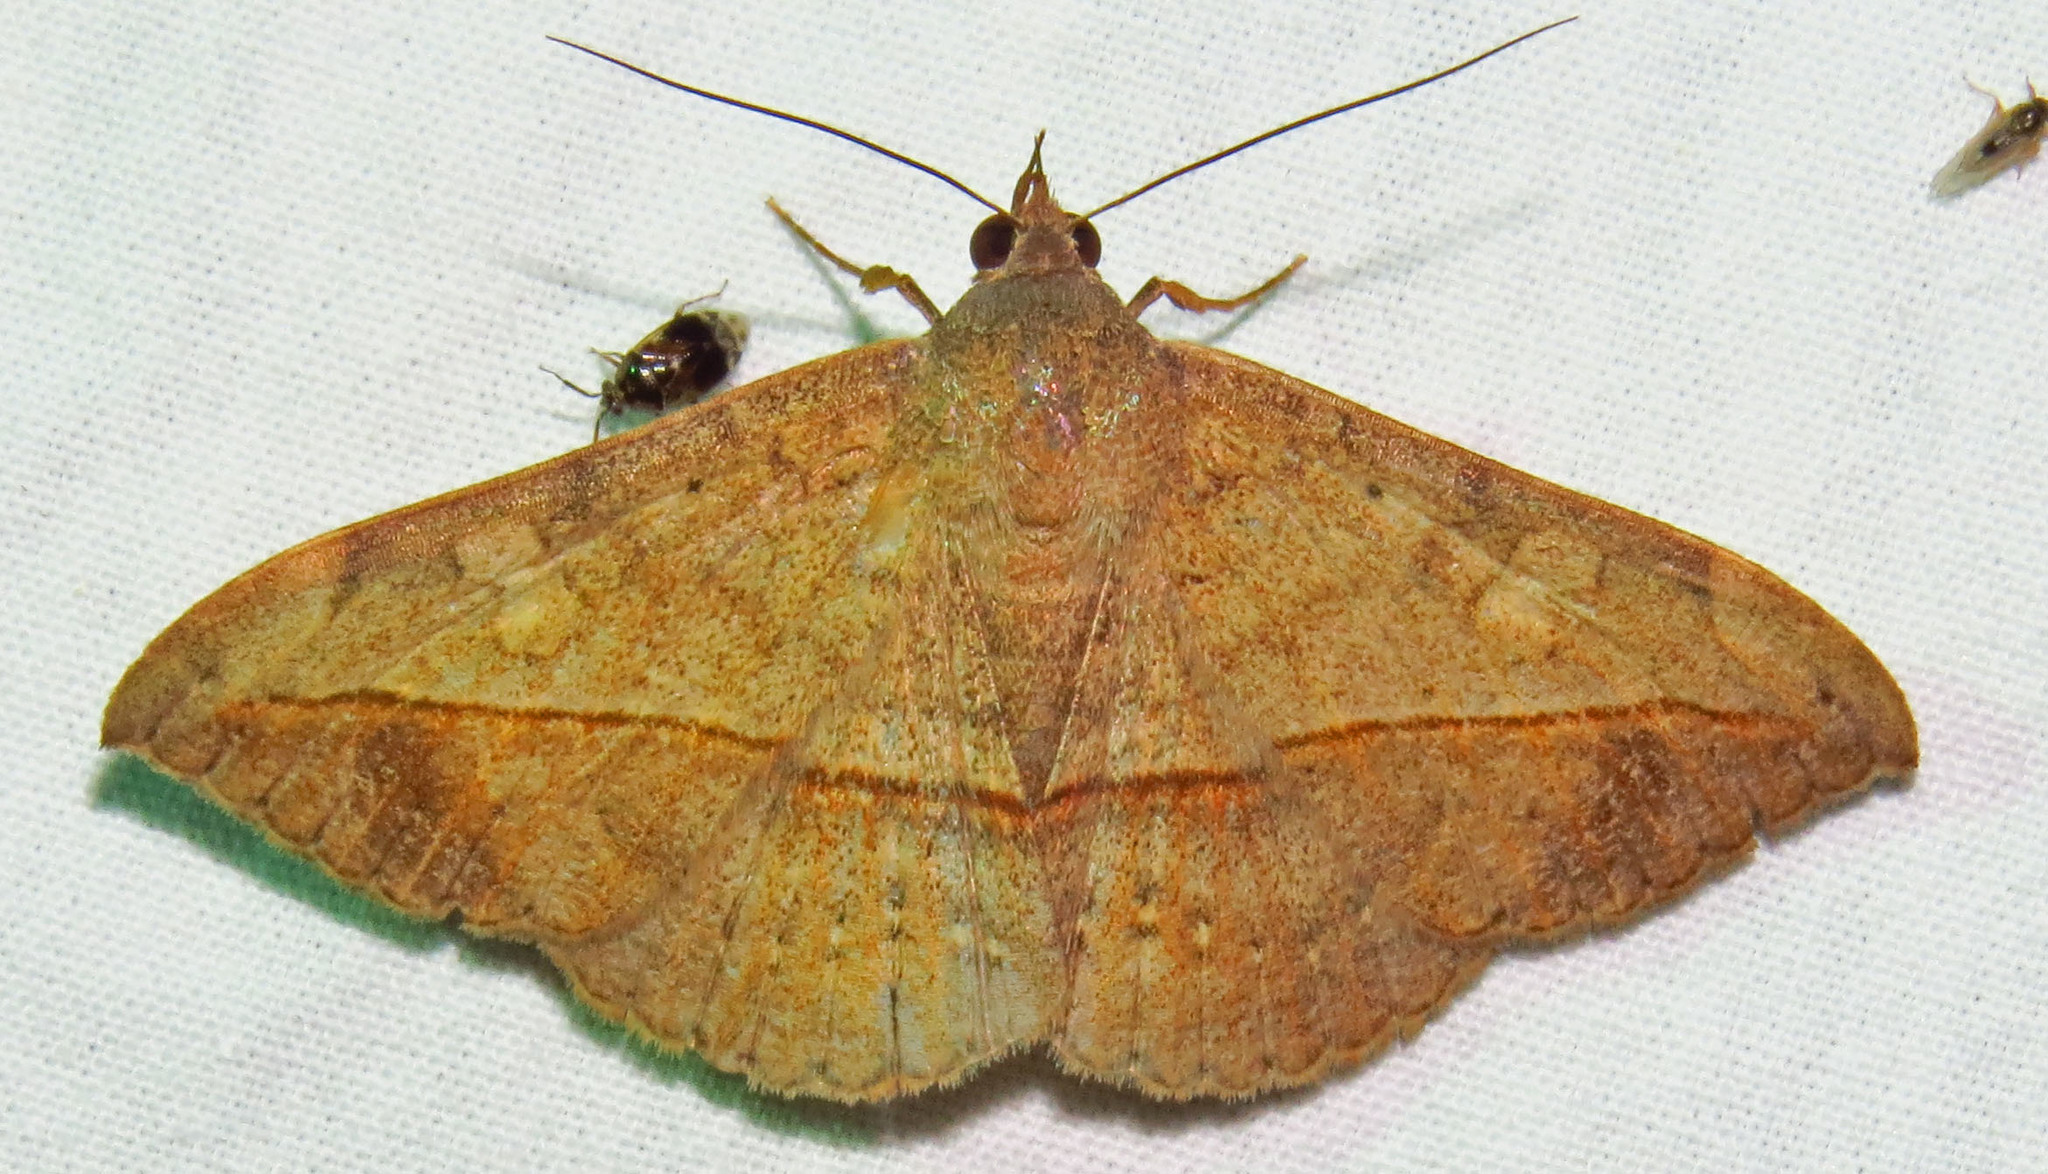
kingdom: Animalia
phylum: Arthropoda
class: Insecta
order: Lepidoptera
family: Erebidae
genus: Anticarsia
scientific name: Anticarsia gemmatalis
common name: Cutworm moth
